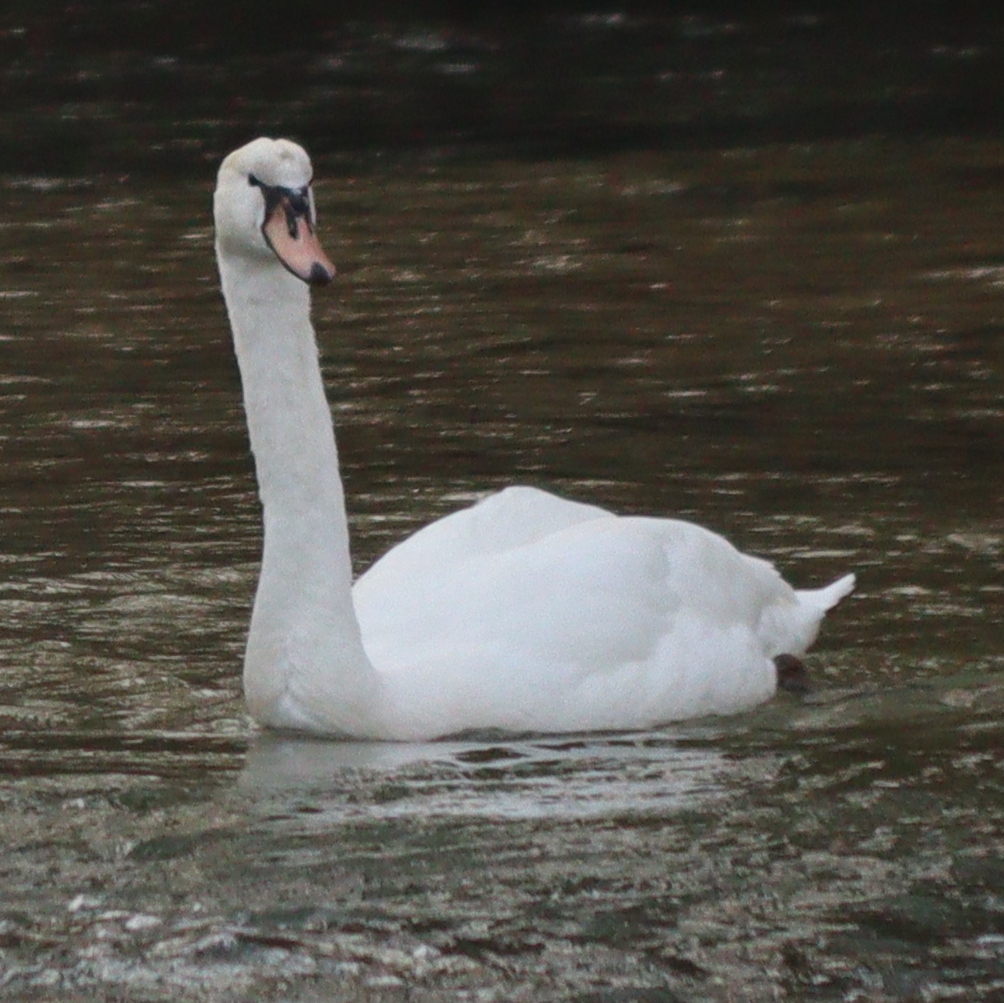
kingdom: Animalia
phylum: Chordata
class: Aves
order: Anseriformes
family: Anatidae
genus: Cygnus
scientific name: Cygnus olor
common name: Mute swan
